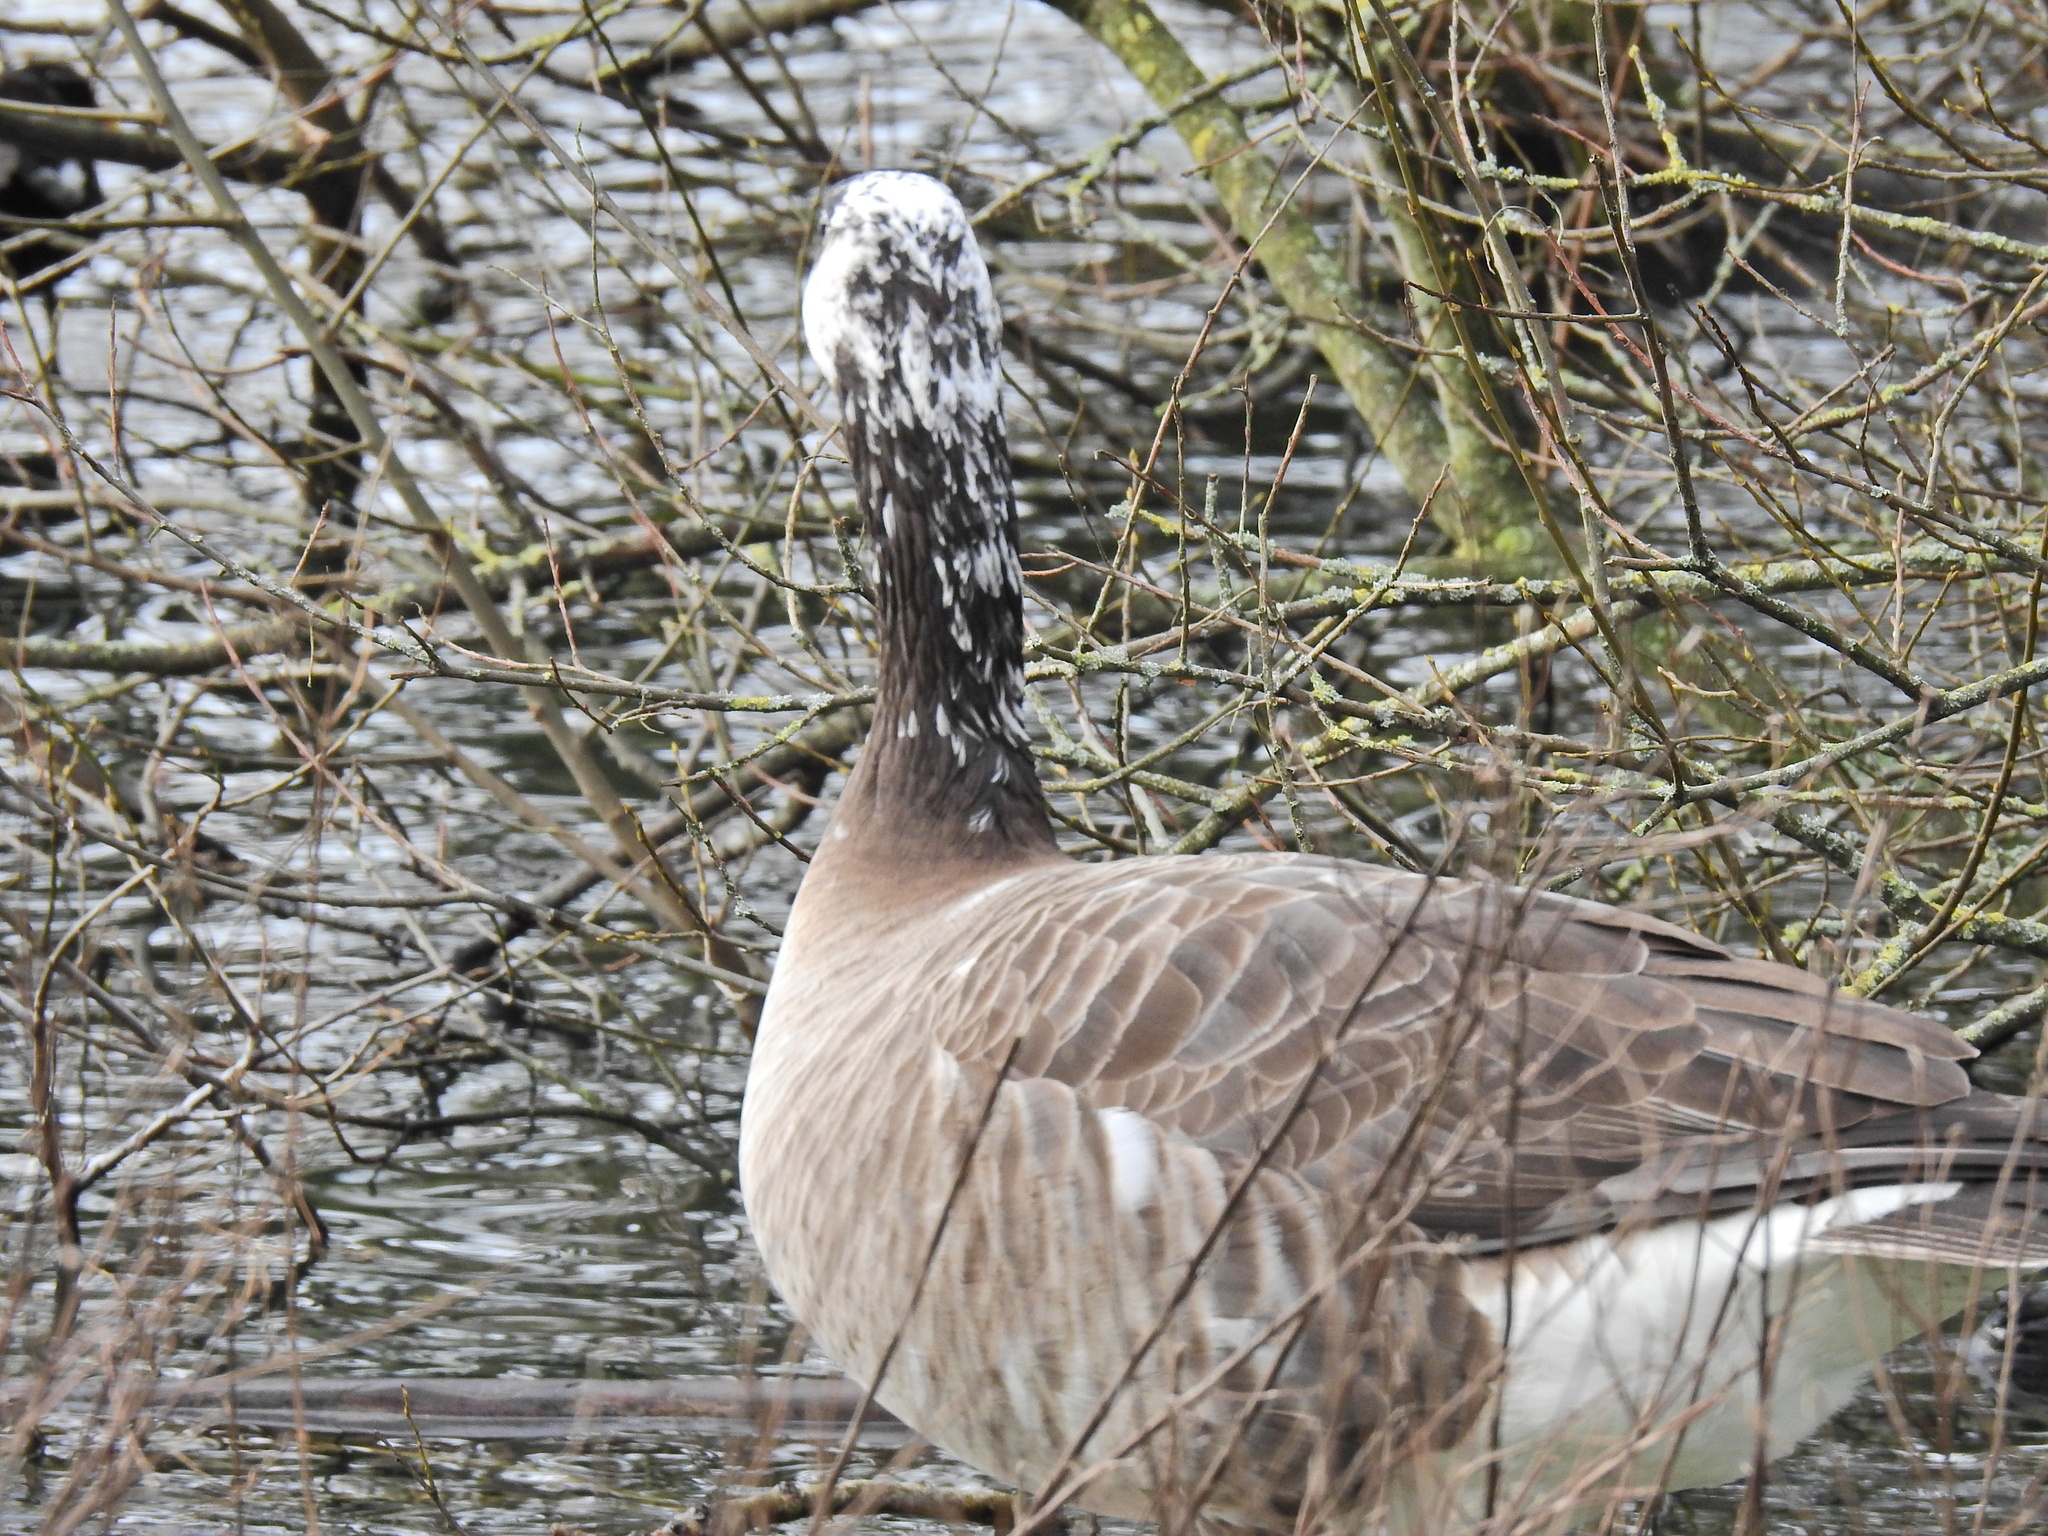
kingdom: Animalia
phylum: Chordata
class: Aves
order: Anseriformes
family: Anatidae
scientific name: Anatidae
